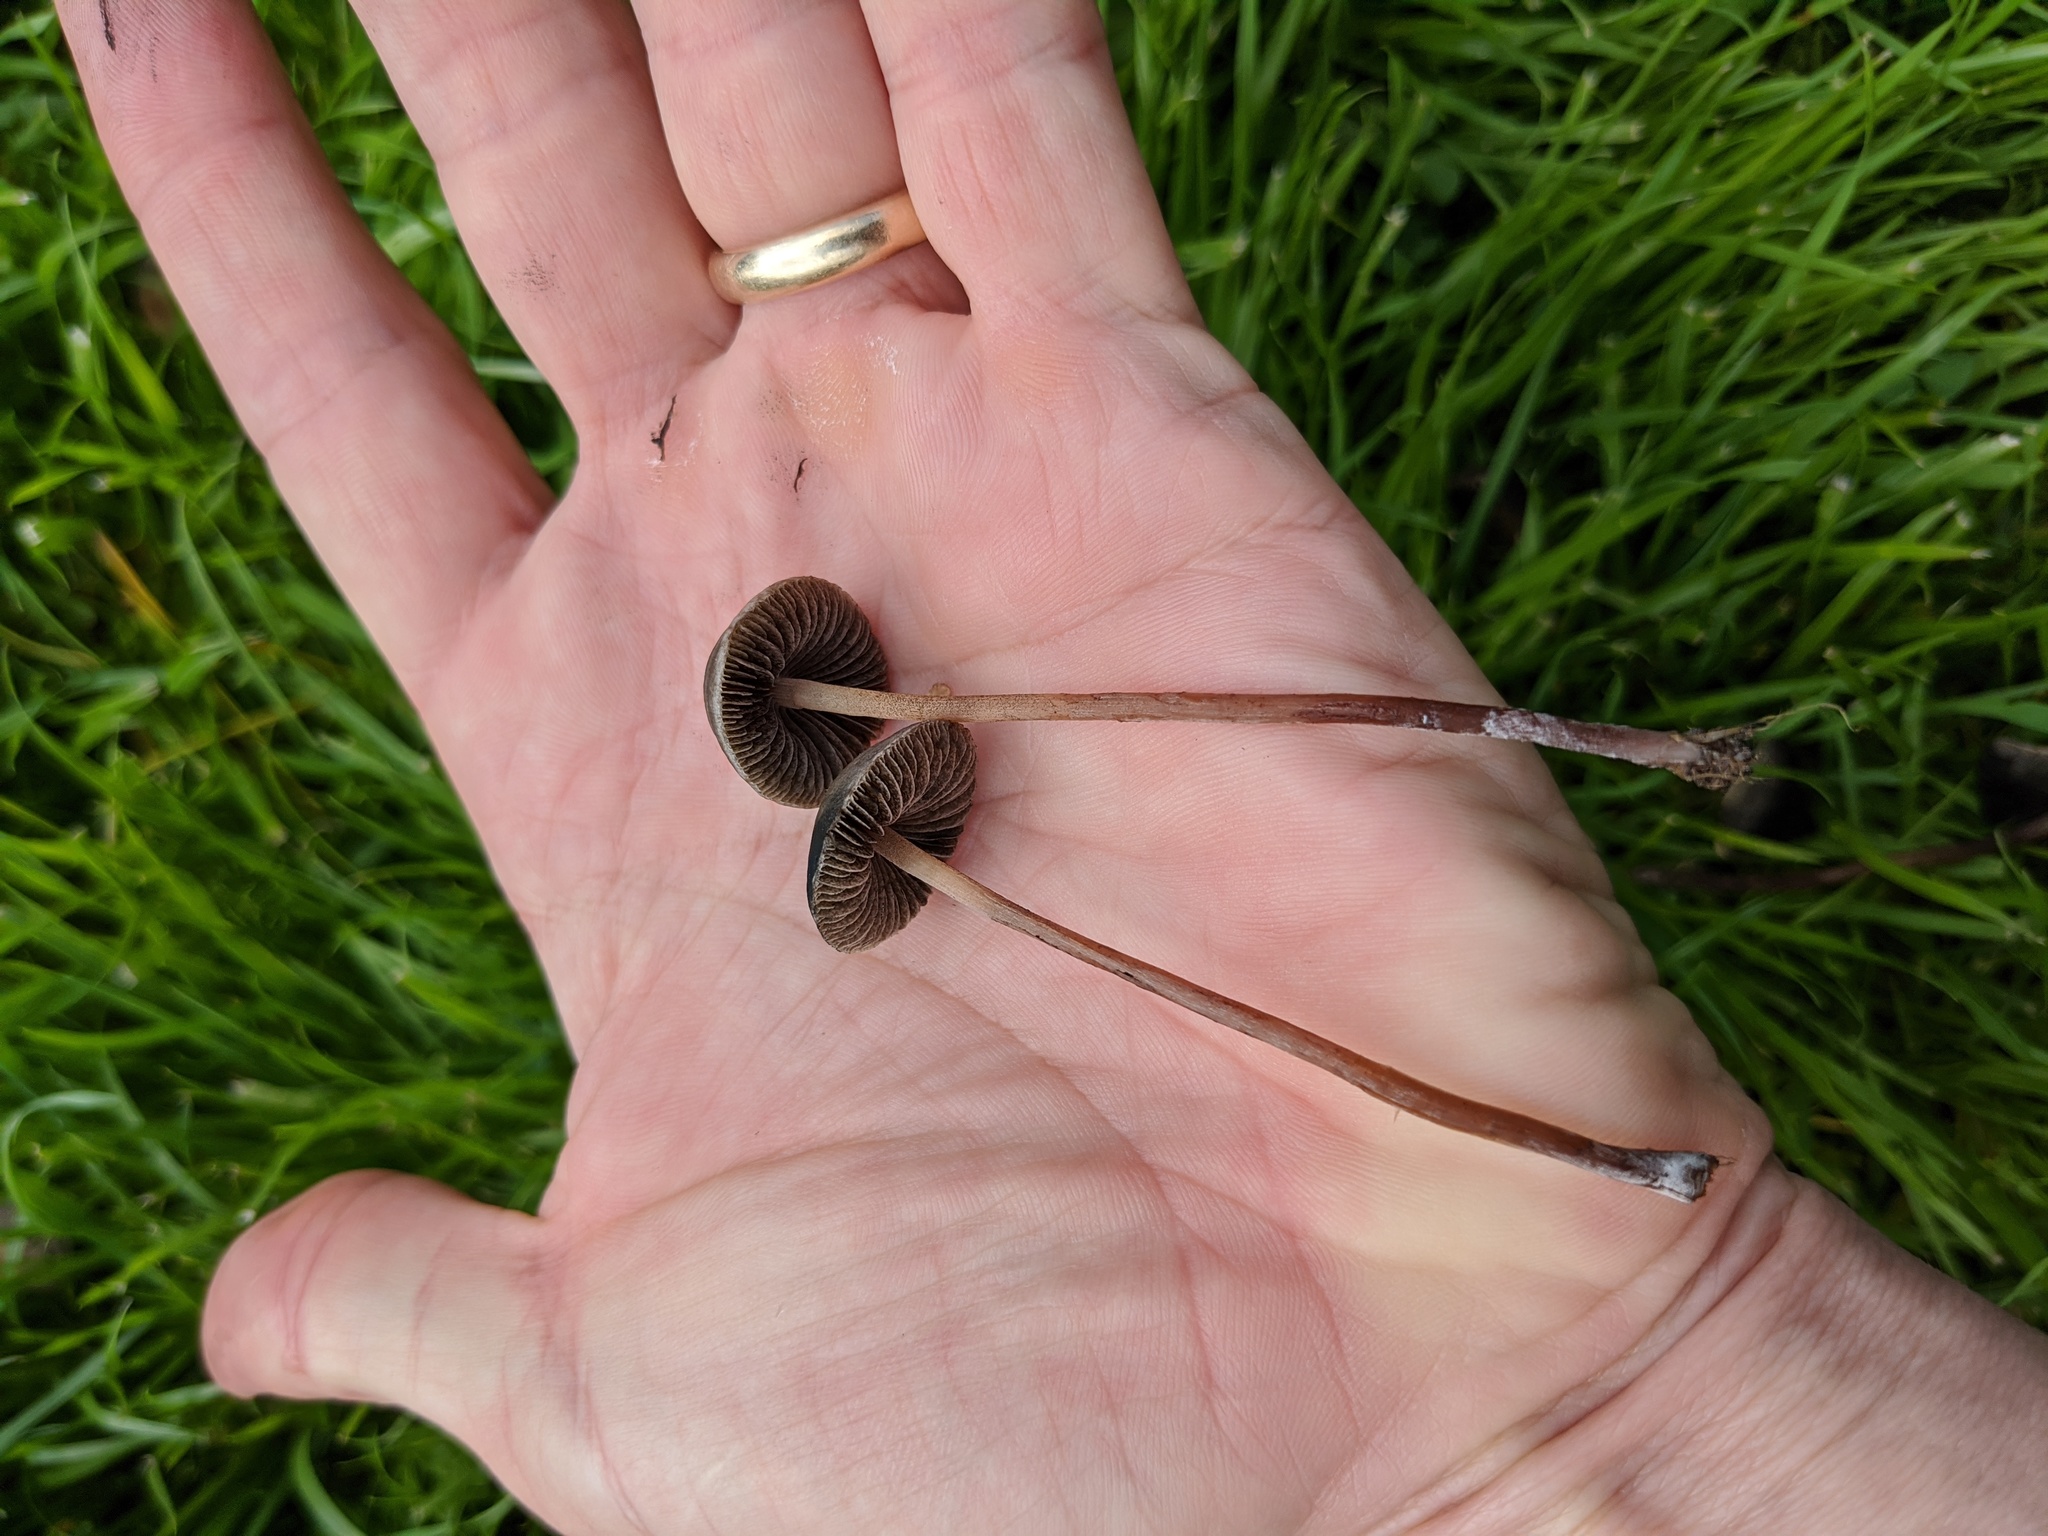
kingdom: Fungi
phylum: Basidiomycota
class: Agaricomycetes
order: Agaricales
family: Bolbitiaceae
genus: Panaeolus
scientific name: Panaeolus cinctulus
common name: Banded mottlegill
